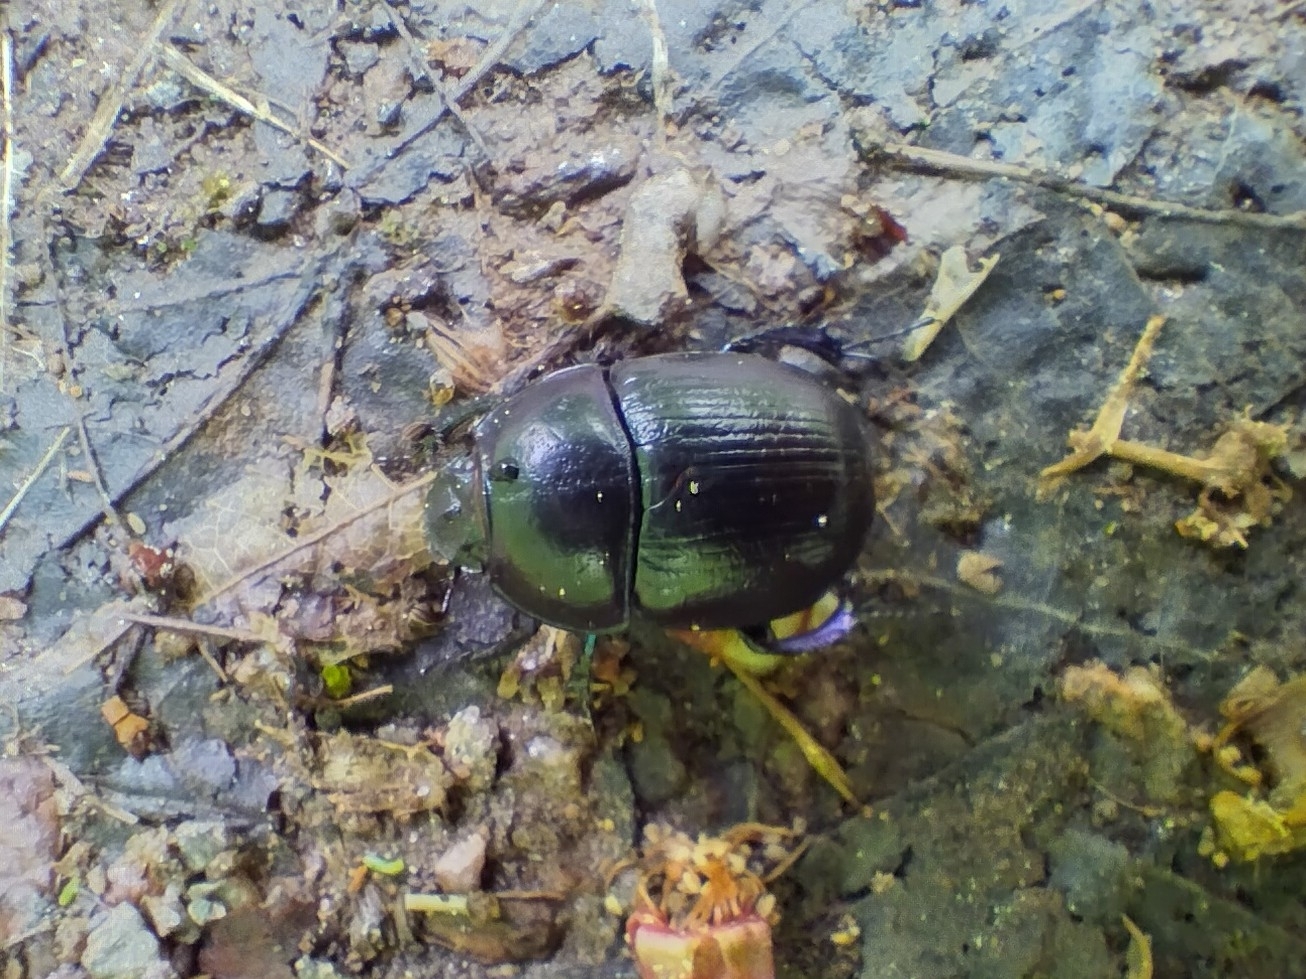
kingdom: Animalia
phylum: Arthropoda
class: Insecta
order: Coleoptera
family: Geotrupidae
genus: Anoplotrupes
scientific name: Anoplotrupes stercorosus
